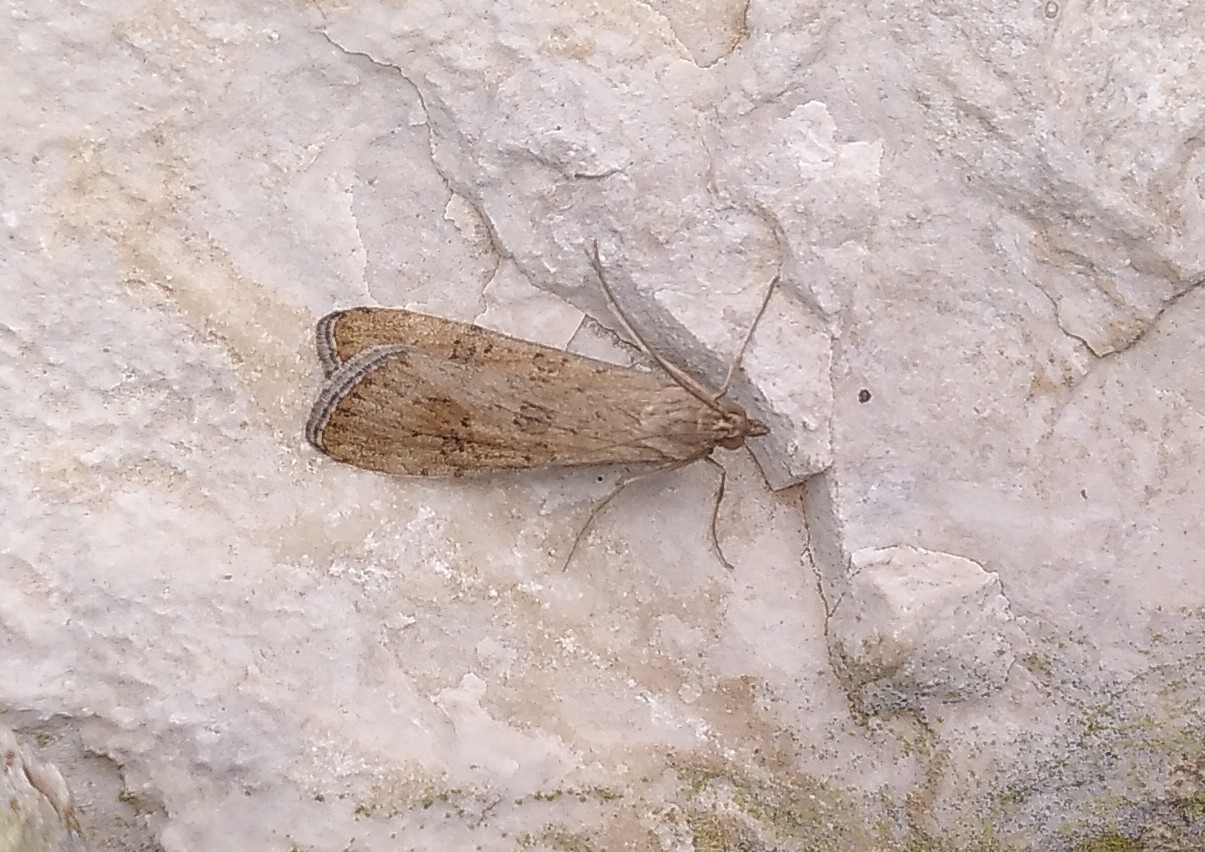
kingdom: Animalia
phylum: Arthropoda
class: Insecta
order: Lepidoptera
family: Crambidae
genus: Nomophila
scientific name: Nomophila noctuella
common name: Rush veneer
